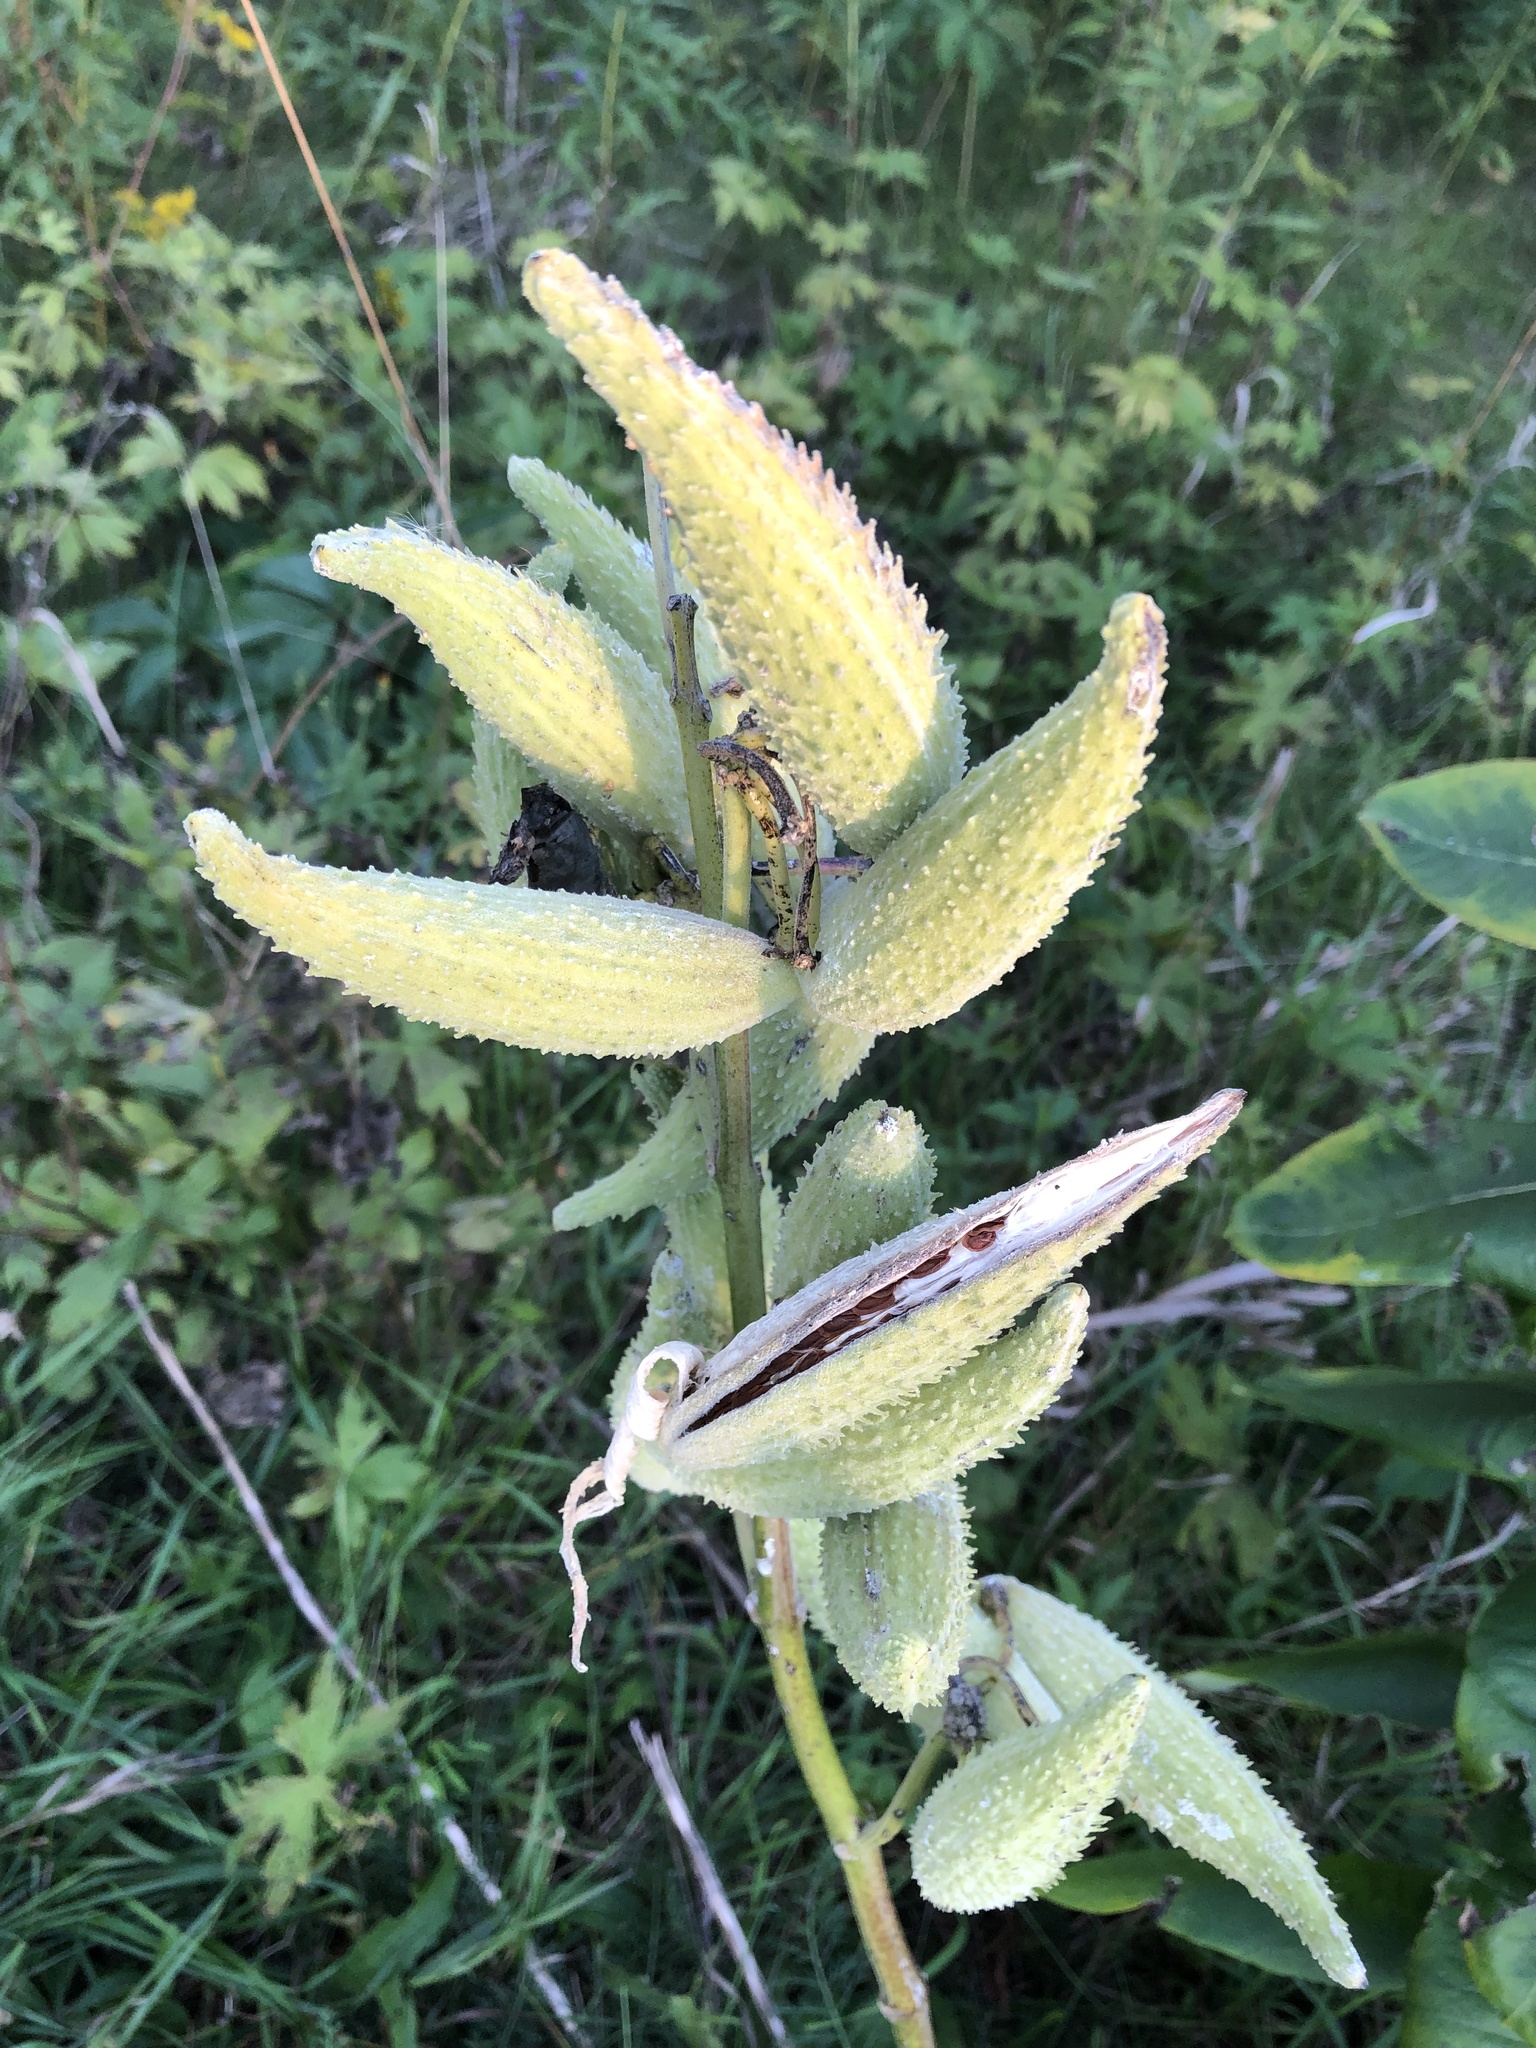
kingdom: Plantae
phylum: Tracheophyta
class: Magnoliopsida
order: Gentianales
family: Apocynaceae
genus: Asclepias
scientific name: Asclepias syriaca
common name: Common milkweed
